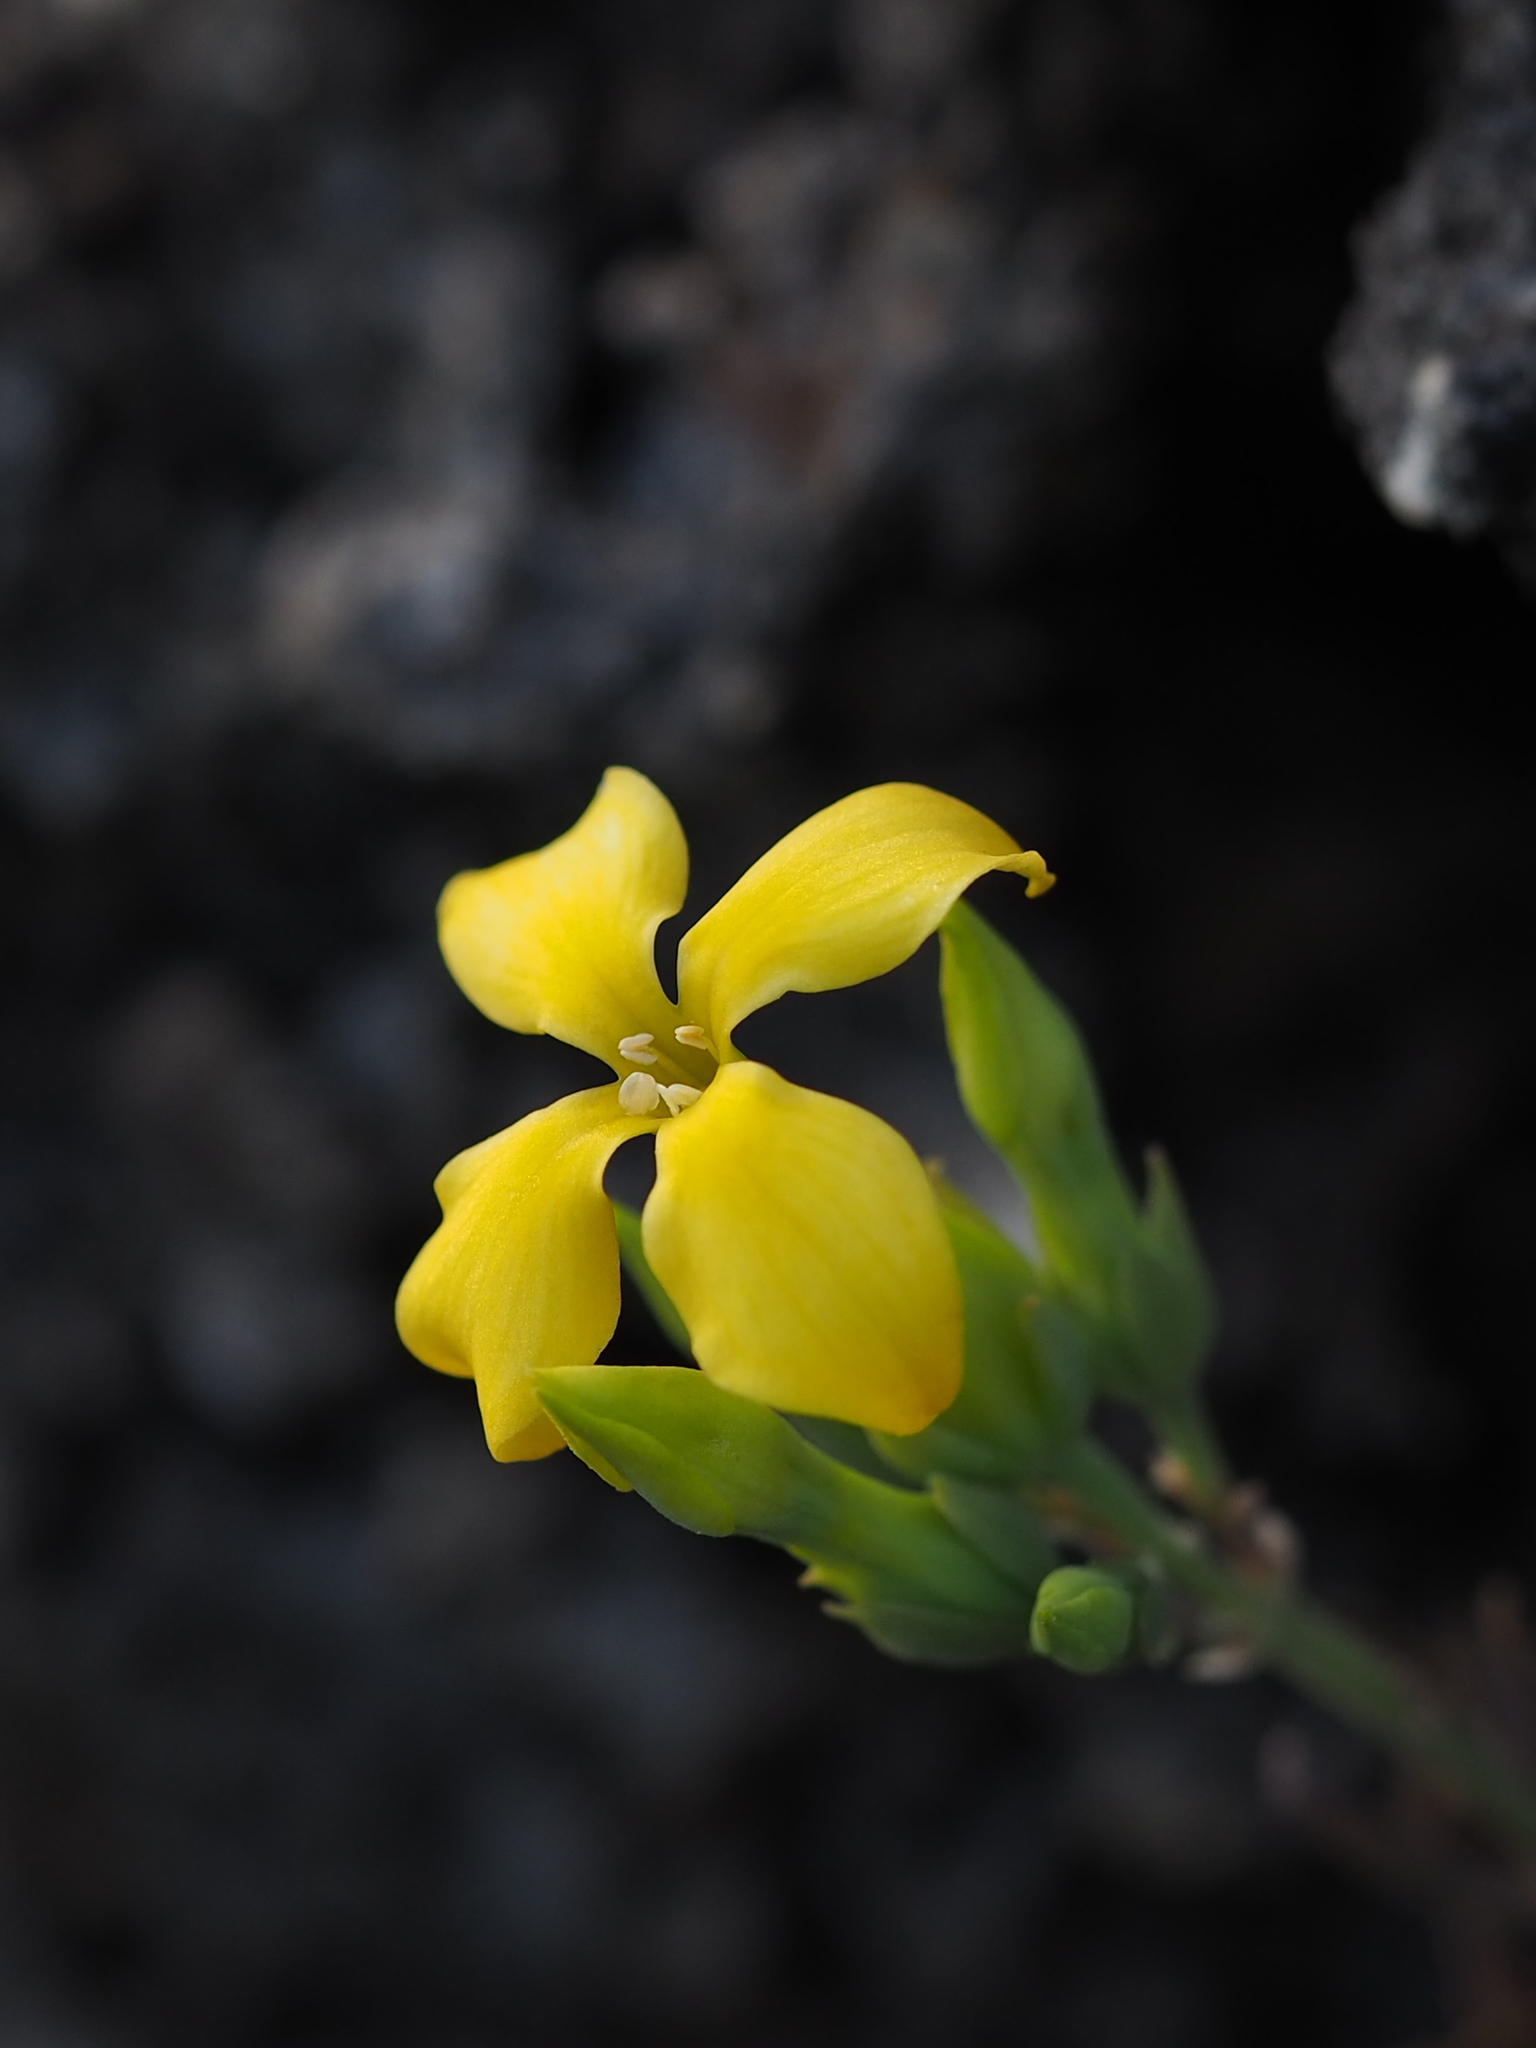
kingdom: Plantae
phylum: Tracheophyta
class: Magnoliopsida
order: Saxifragales
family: Crassulaceae
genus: Kalanchoe
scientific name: Kalanchoe integra
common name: Neverdie
